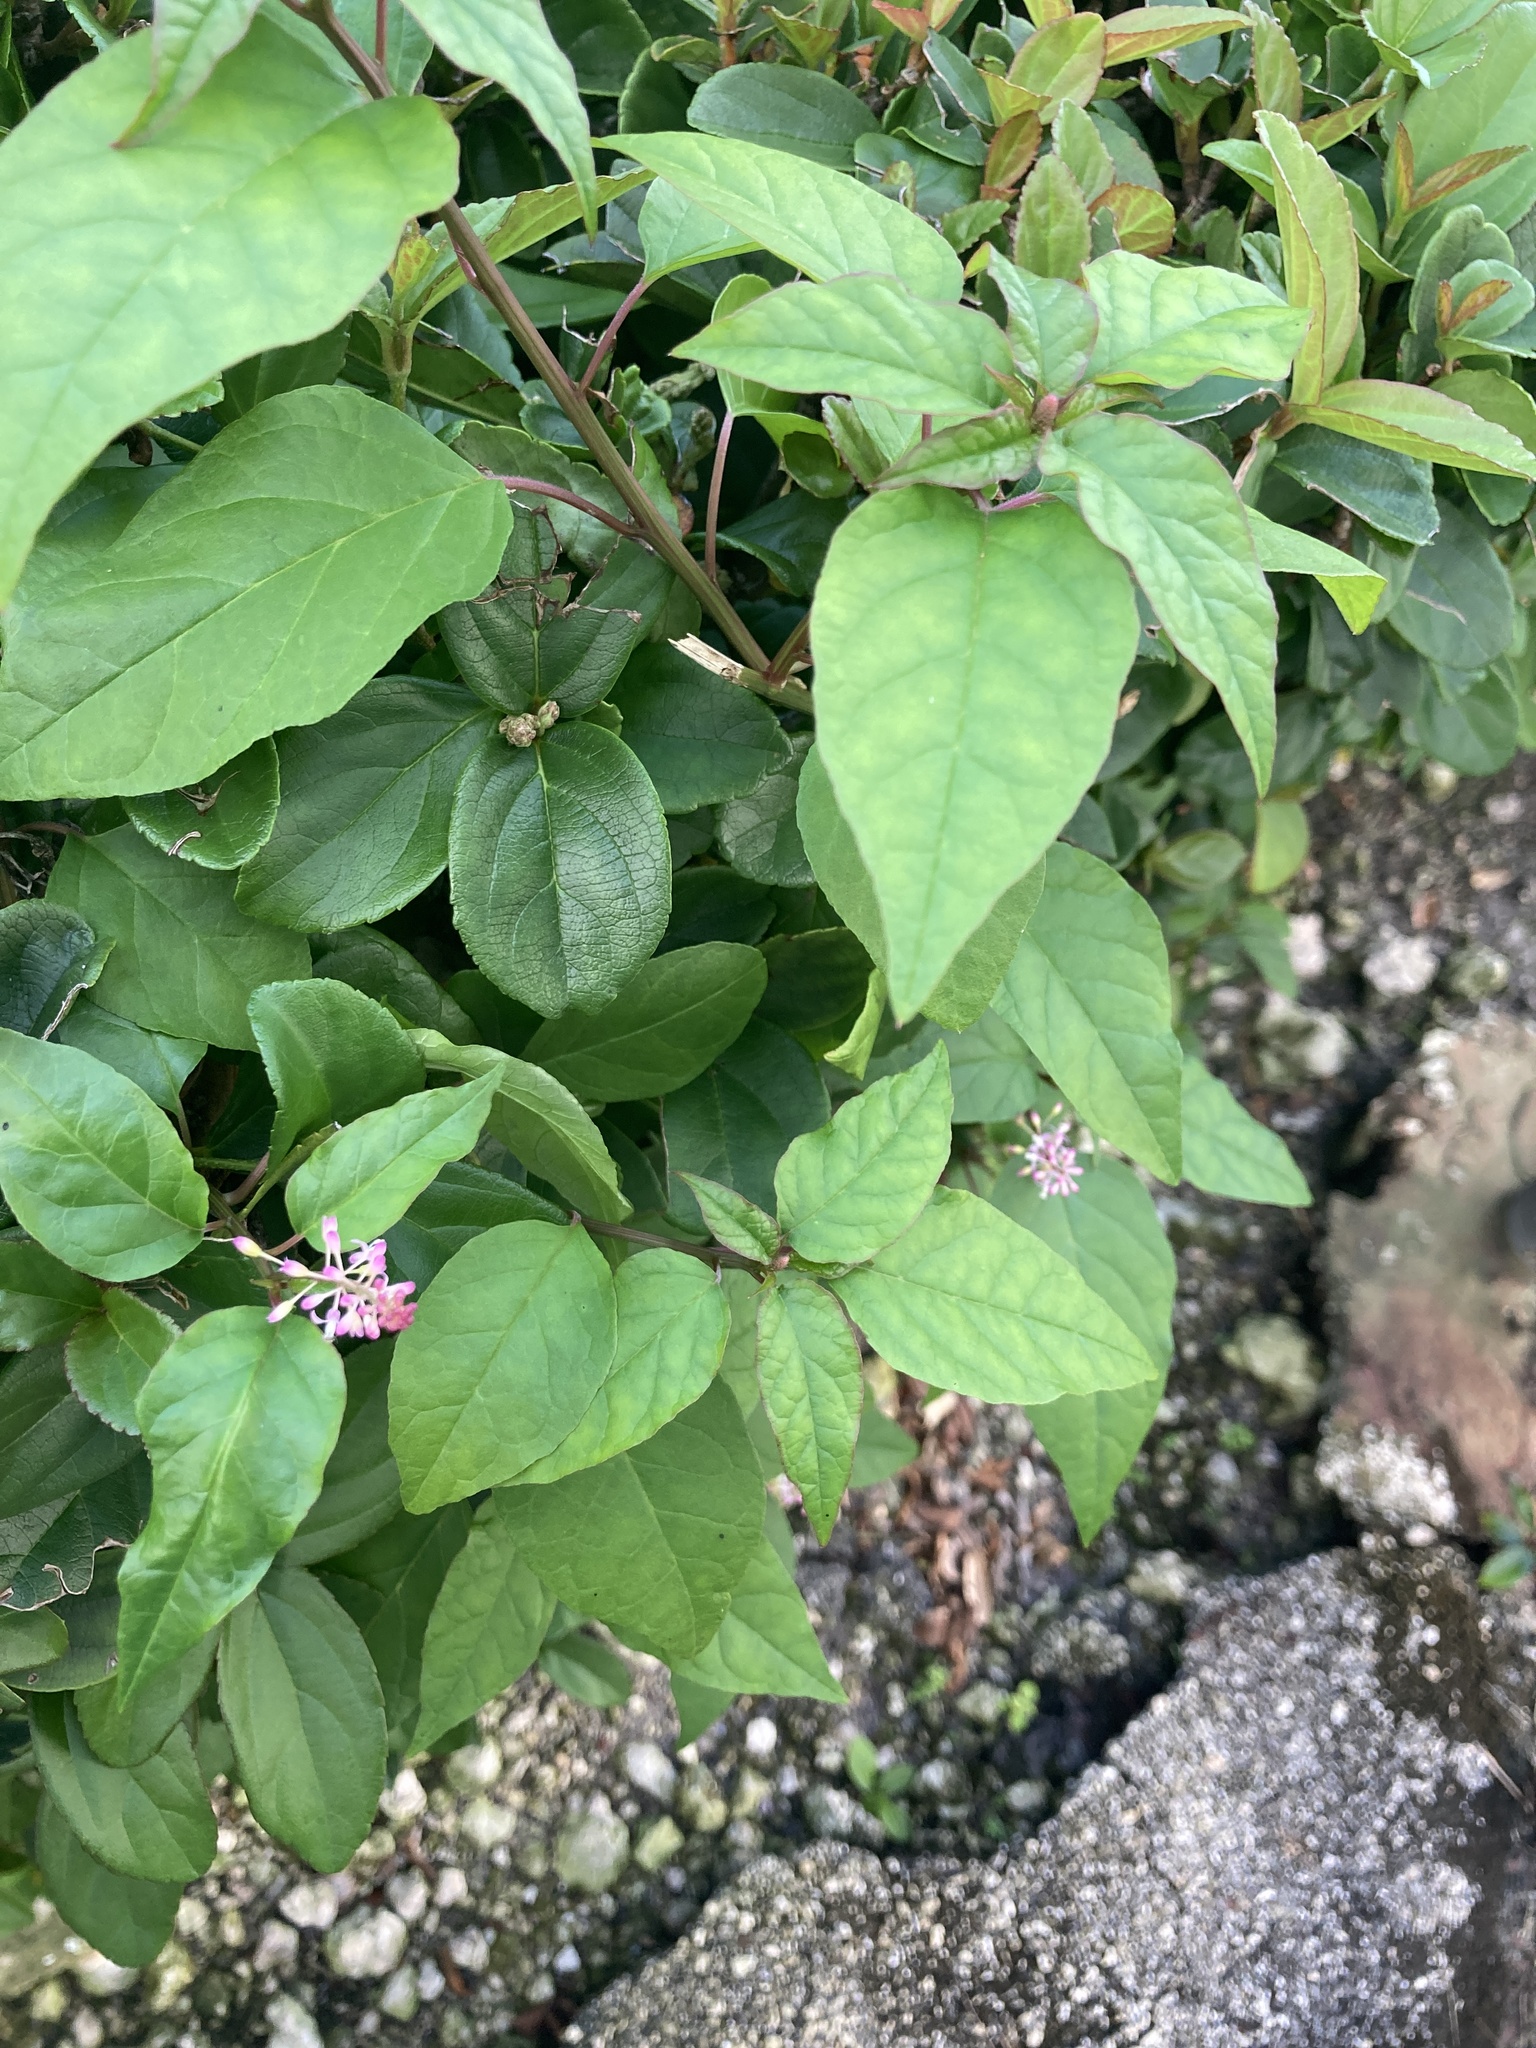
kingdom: Plantae
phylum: Tracheophyta
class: Magnoliopsida
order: Caryophyllales
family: Phytolaccaceae
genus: Rivina
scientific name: Rivina humilis
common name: Rougeplant
